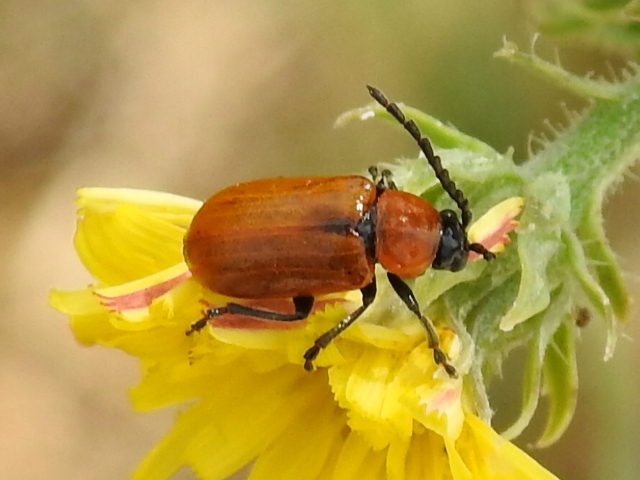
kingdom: Animalia
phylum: Arthropoda
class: Insecta
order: Coleoptera
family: Chrysomelidae
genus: Exosoma
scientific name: Exosoma lusitanicum
